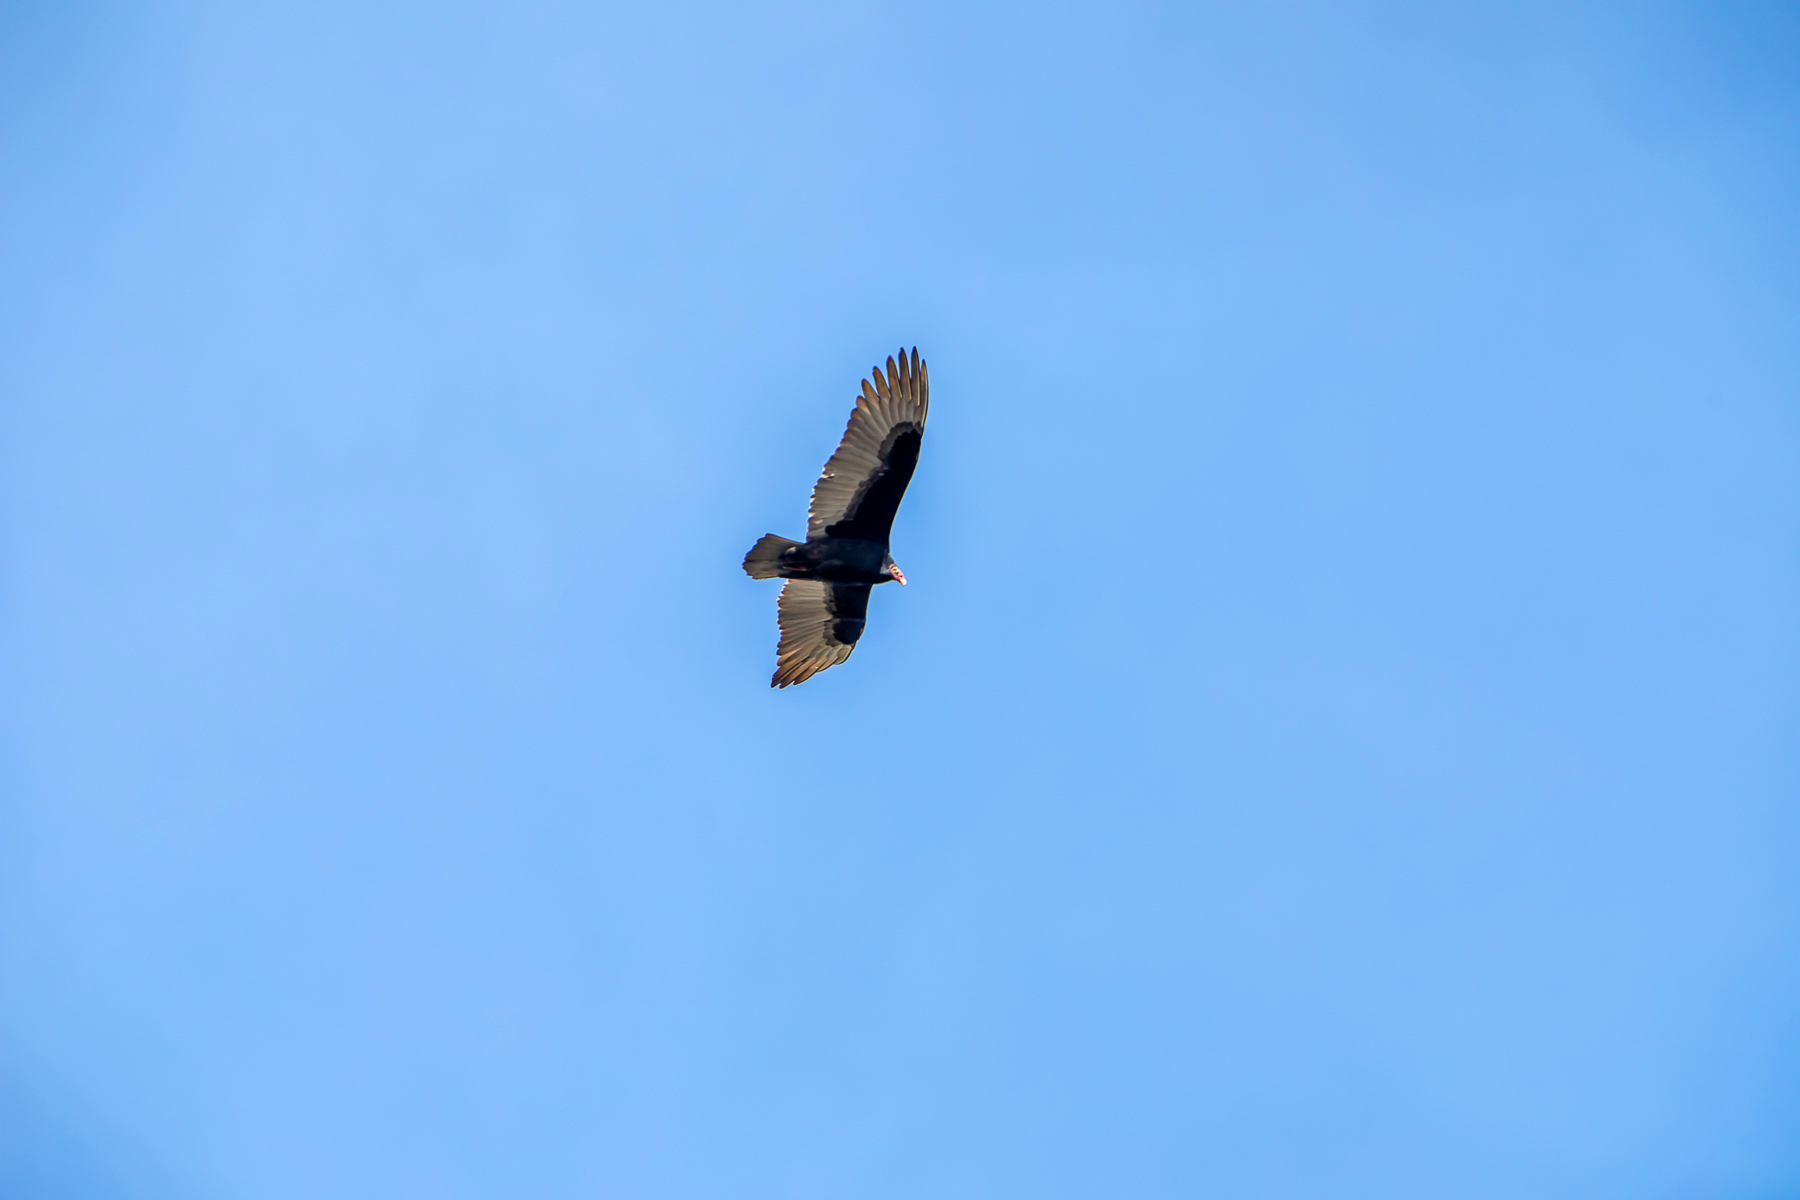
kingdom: Animalia
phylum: Chordata
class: Aves
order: Accipitriformes
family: Cathartidae
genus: Cathartes
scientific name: Cathartes aura
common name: Turkey vulture
